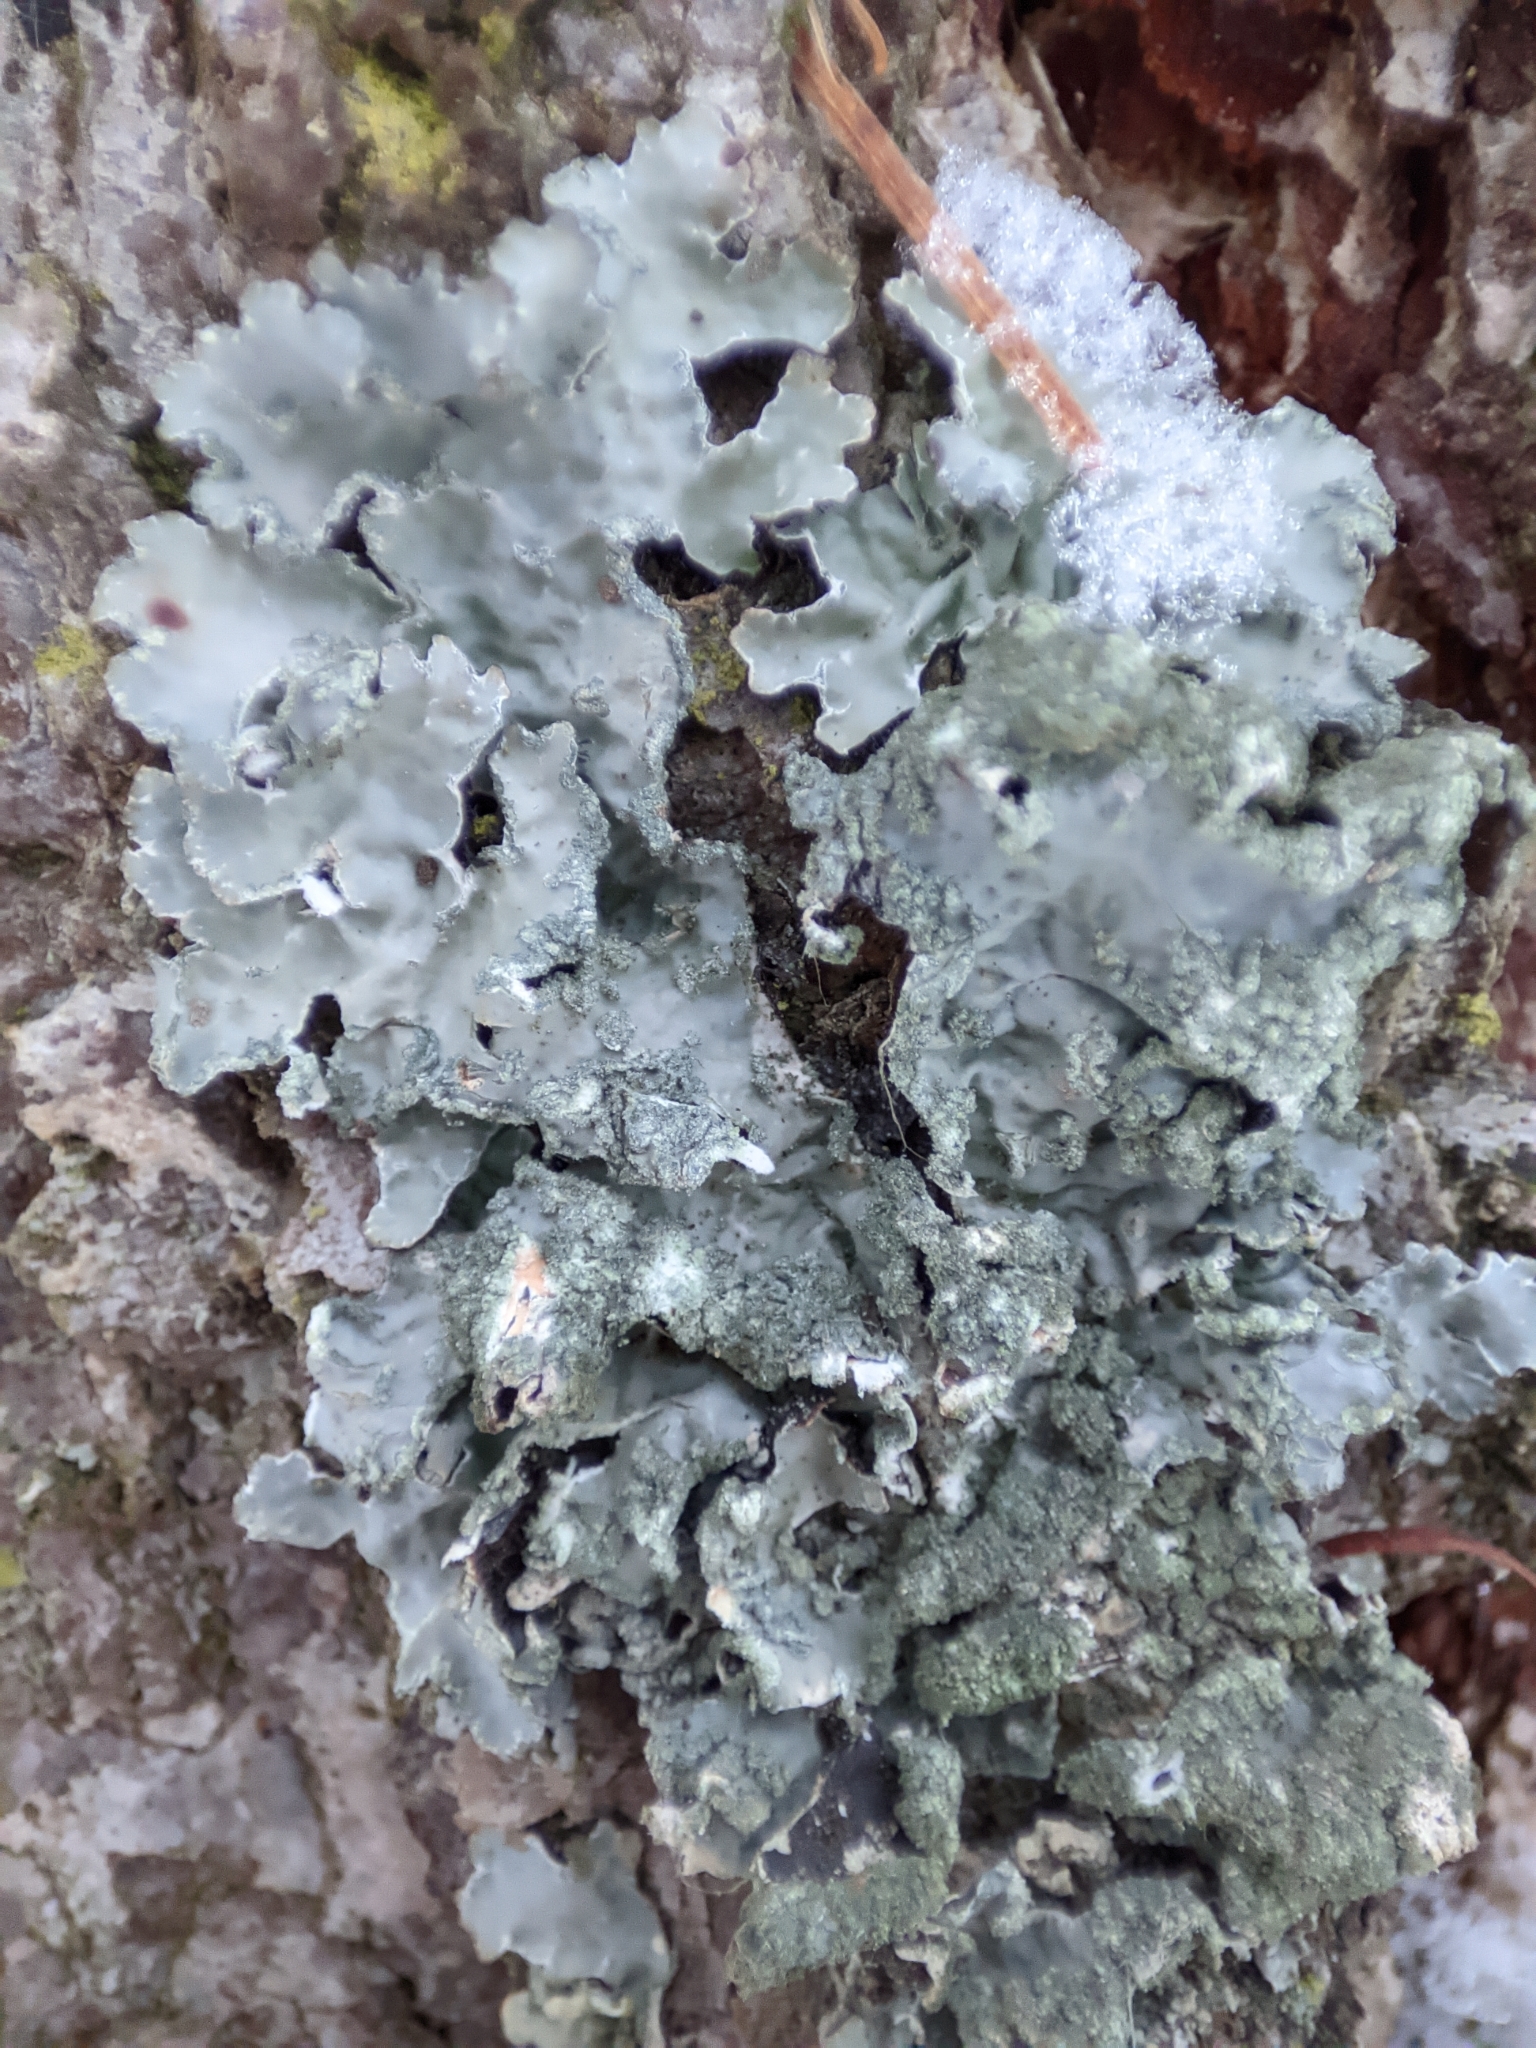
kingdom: Fungi
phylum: Ascomycota
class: Lecanoromycetes
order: Lecanorales
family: Parmeliaceae
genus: Parmelia
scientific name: Parmelia sulcata
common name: Netted shield lichen
